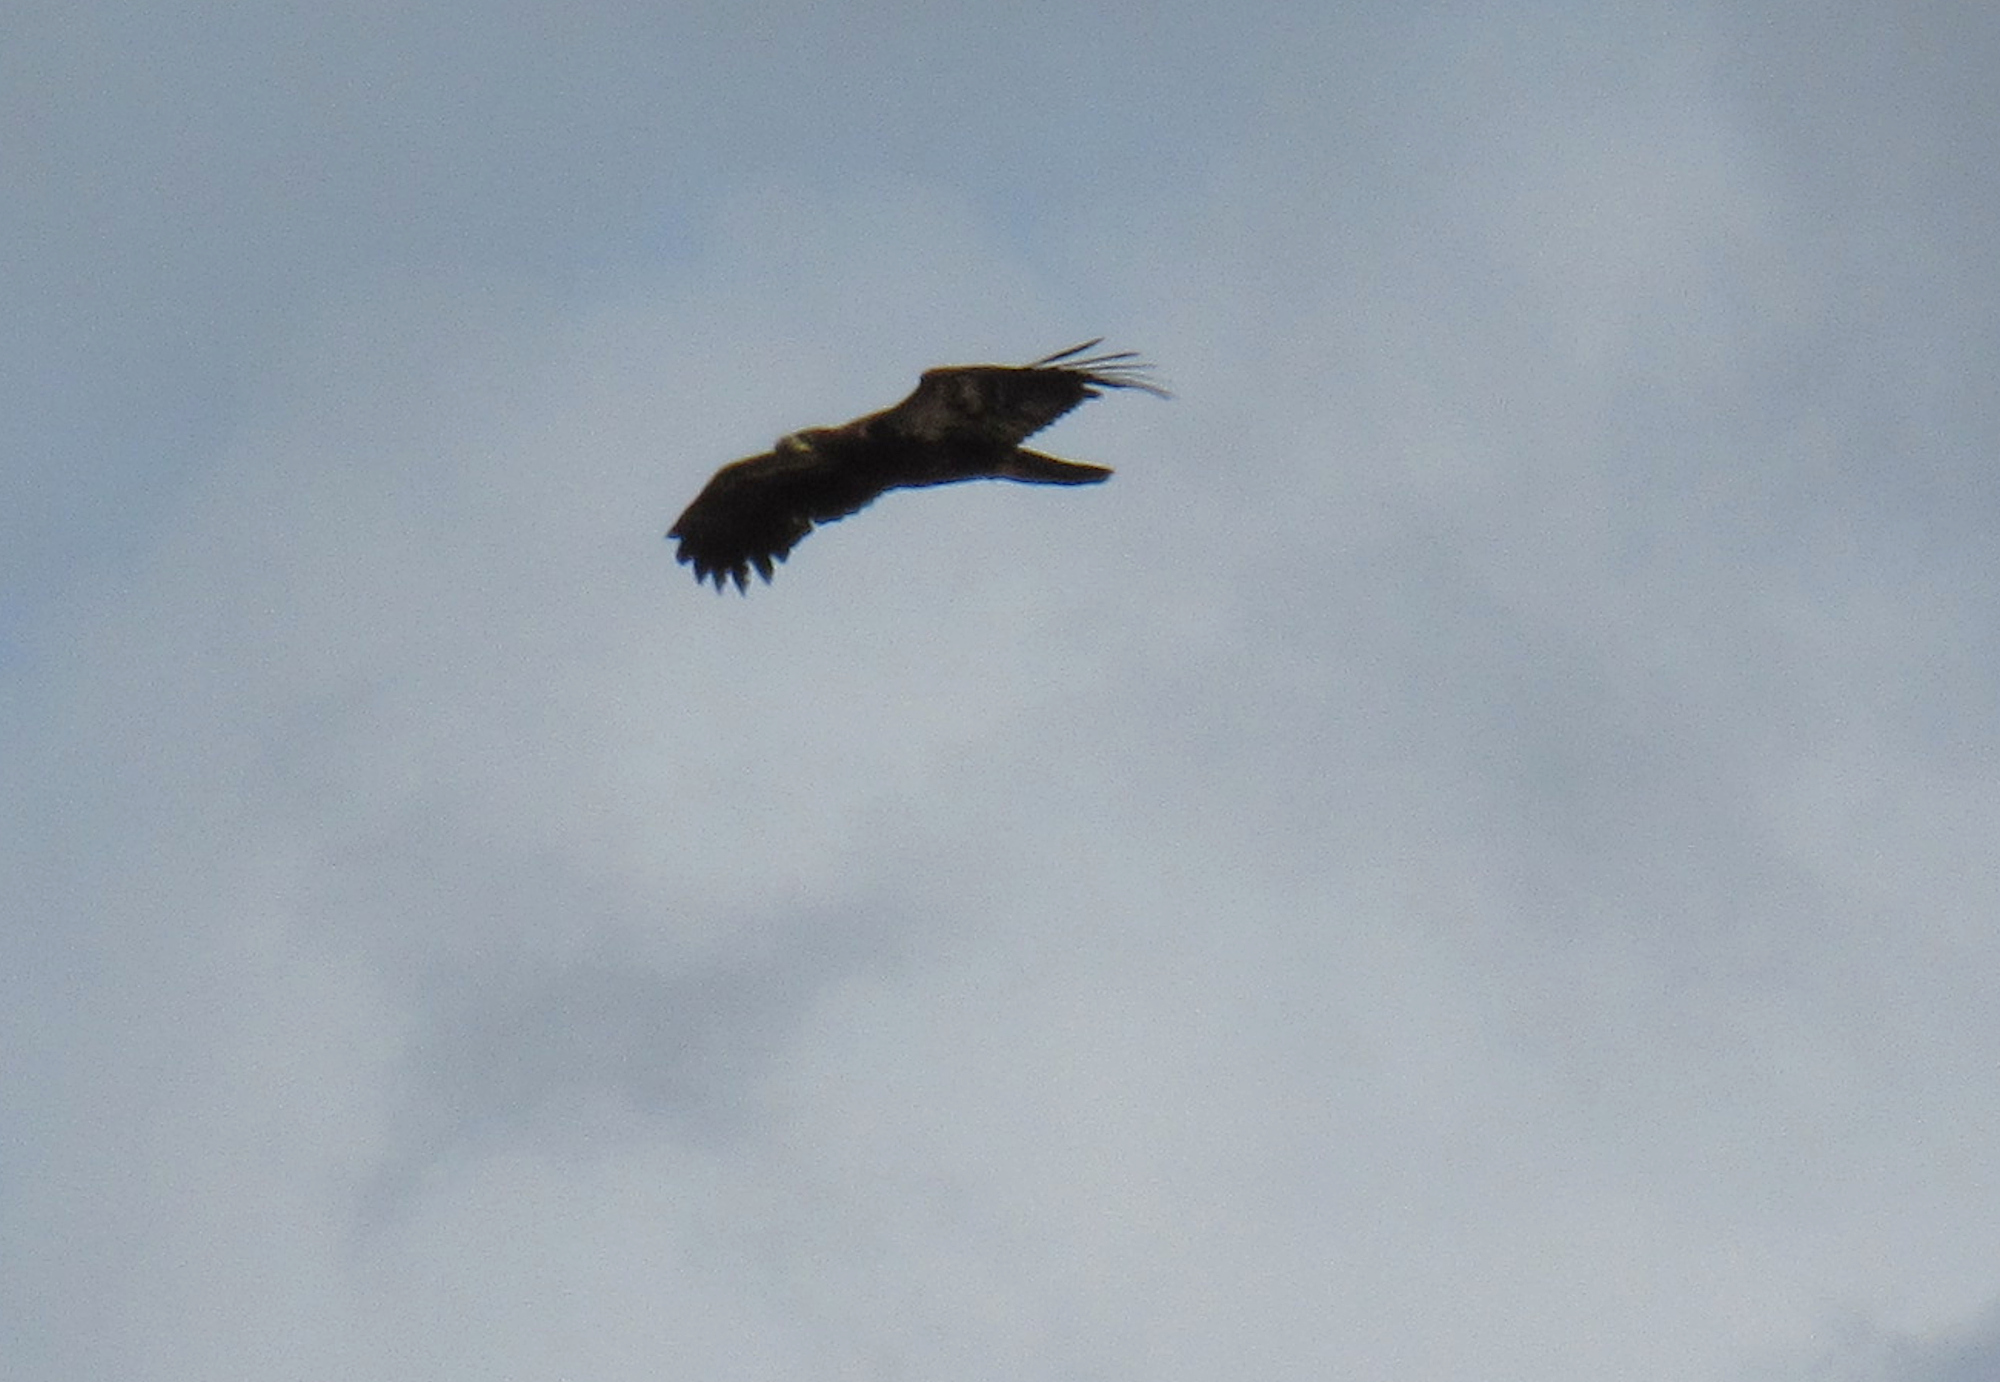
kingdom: Animalia
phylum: Chordata
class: Aves
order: Accipitriformes
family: Accipitridae
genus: Haliaeetus
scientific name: Haliaeetus leucocephalus
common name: Bald eagle
